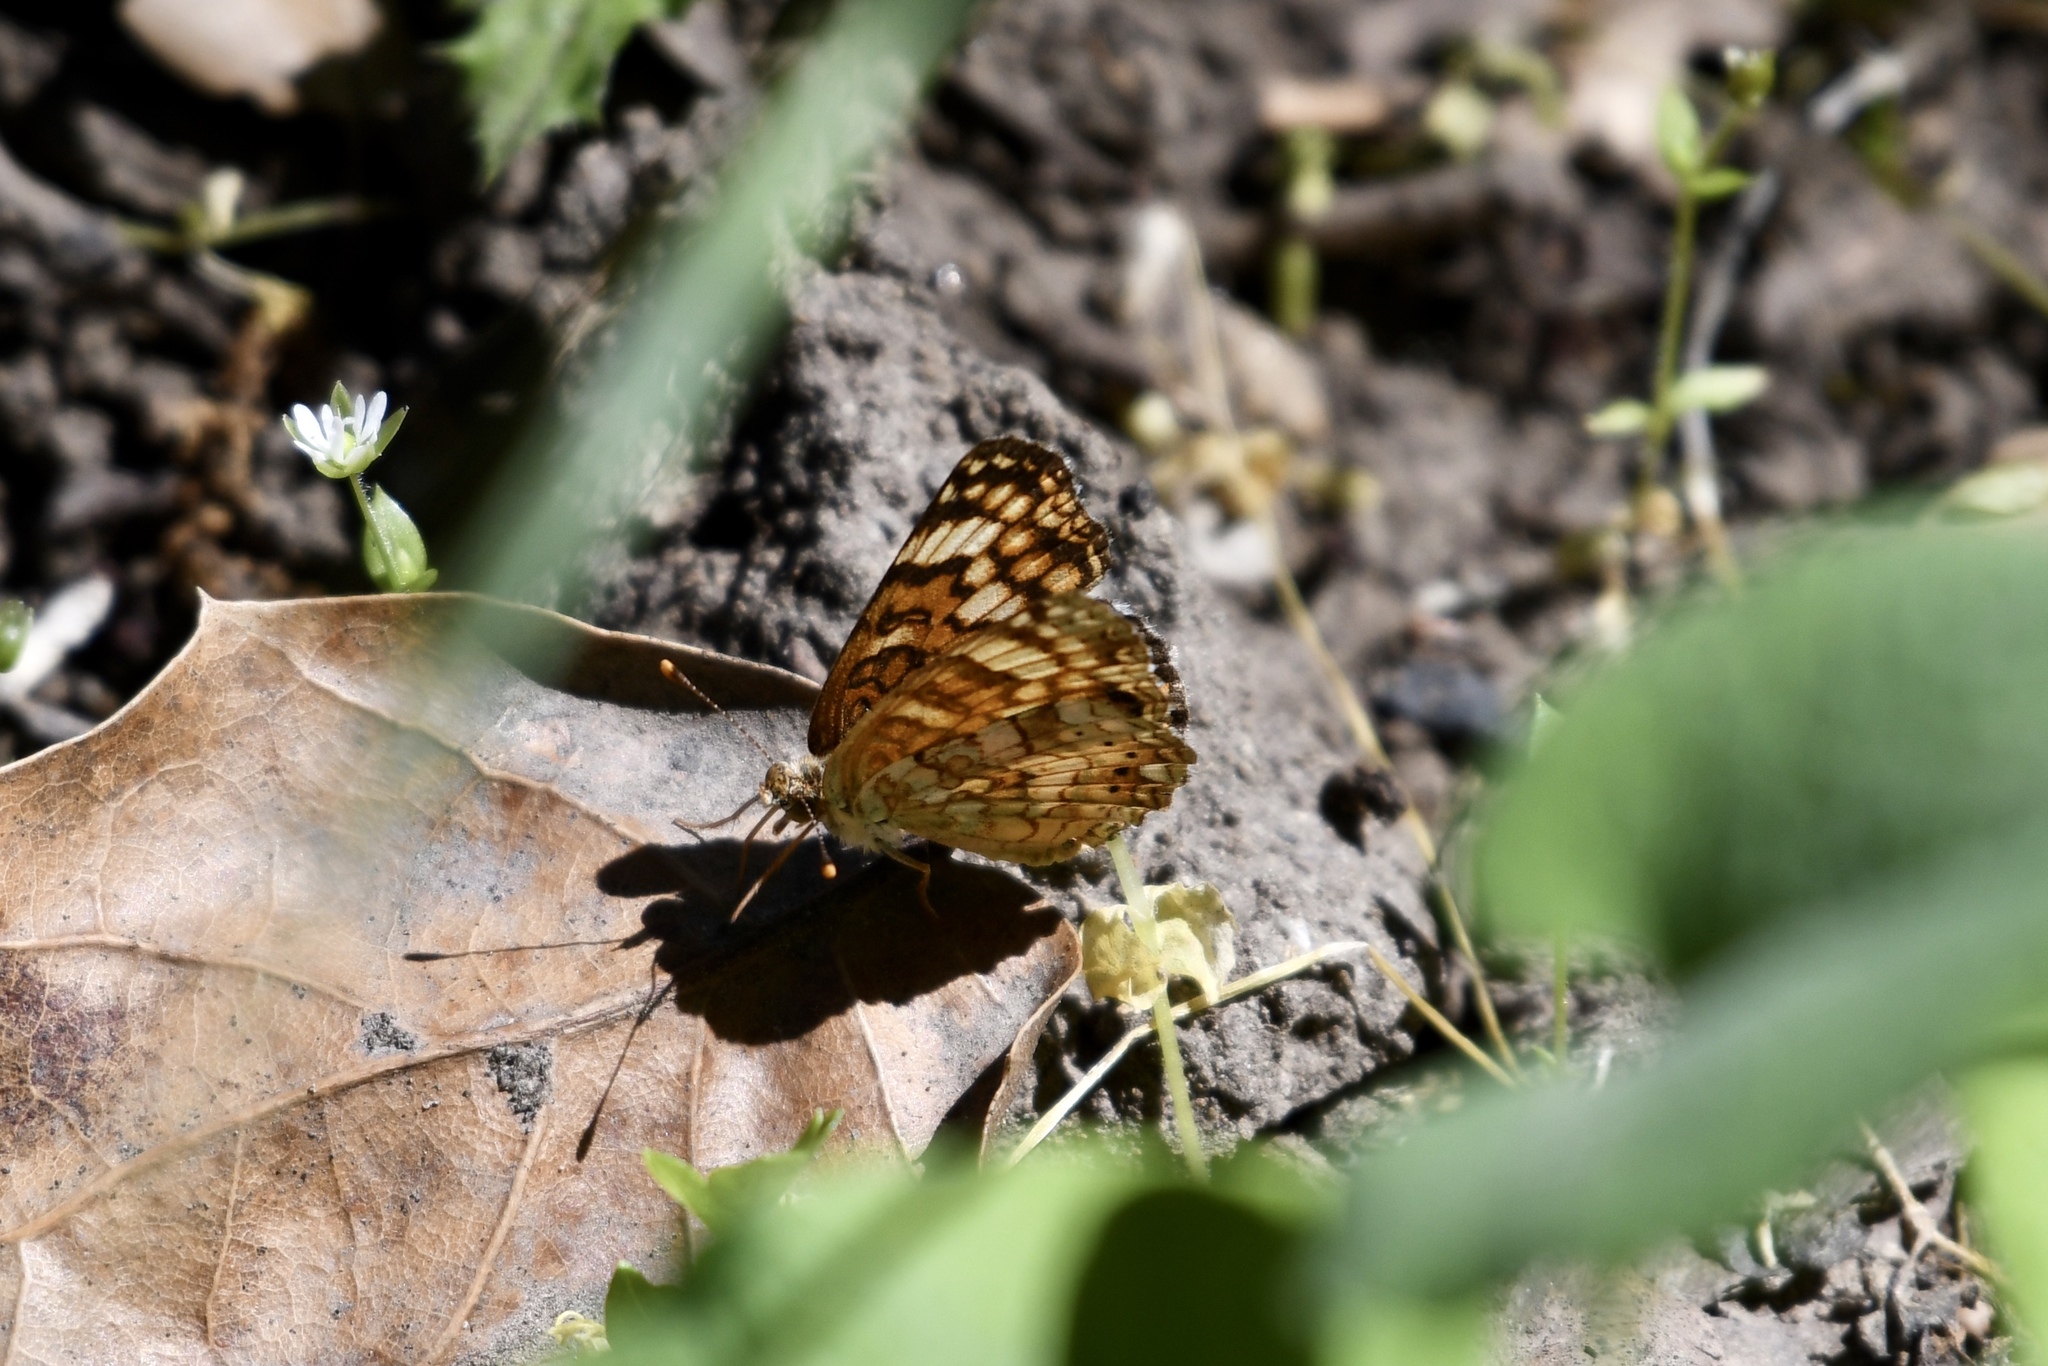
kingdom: Animalia
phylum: Arthropoda
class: Insecta
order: Lepidoptera
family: Nymphalidae
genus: Eresia
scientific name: Eresia aveyrona
